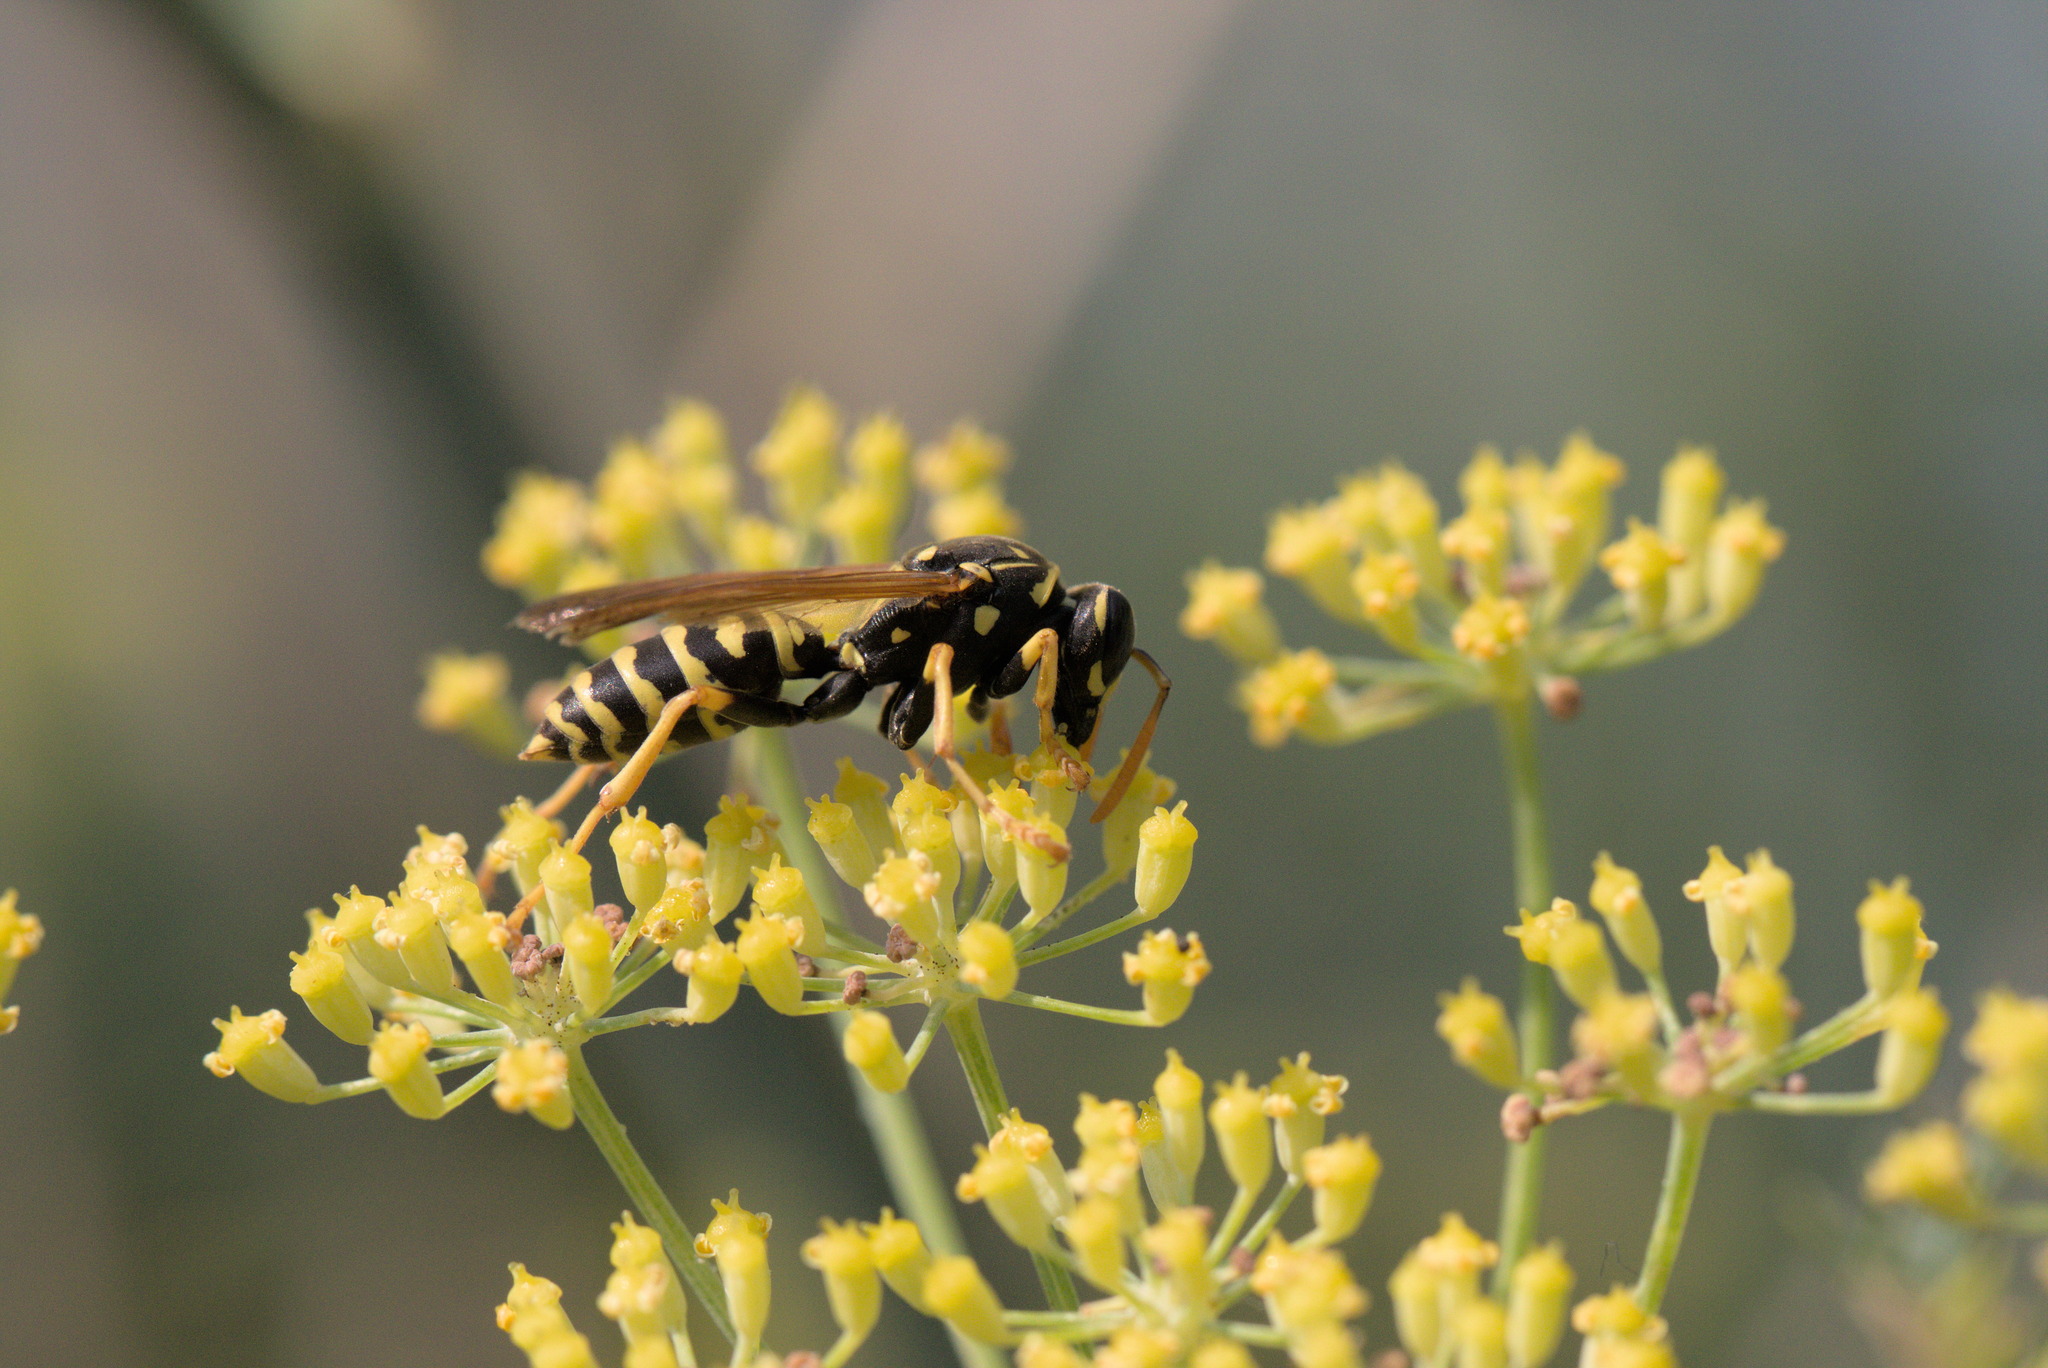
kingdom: Animalia
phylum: Arthropoda
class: Insecta
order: Hymenoptera
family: Eumenidae
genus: Polistes
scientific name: Polistes dominula
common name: Paper wasp
